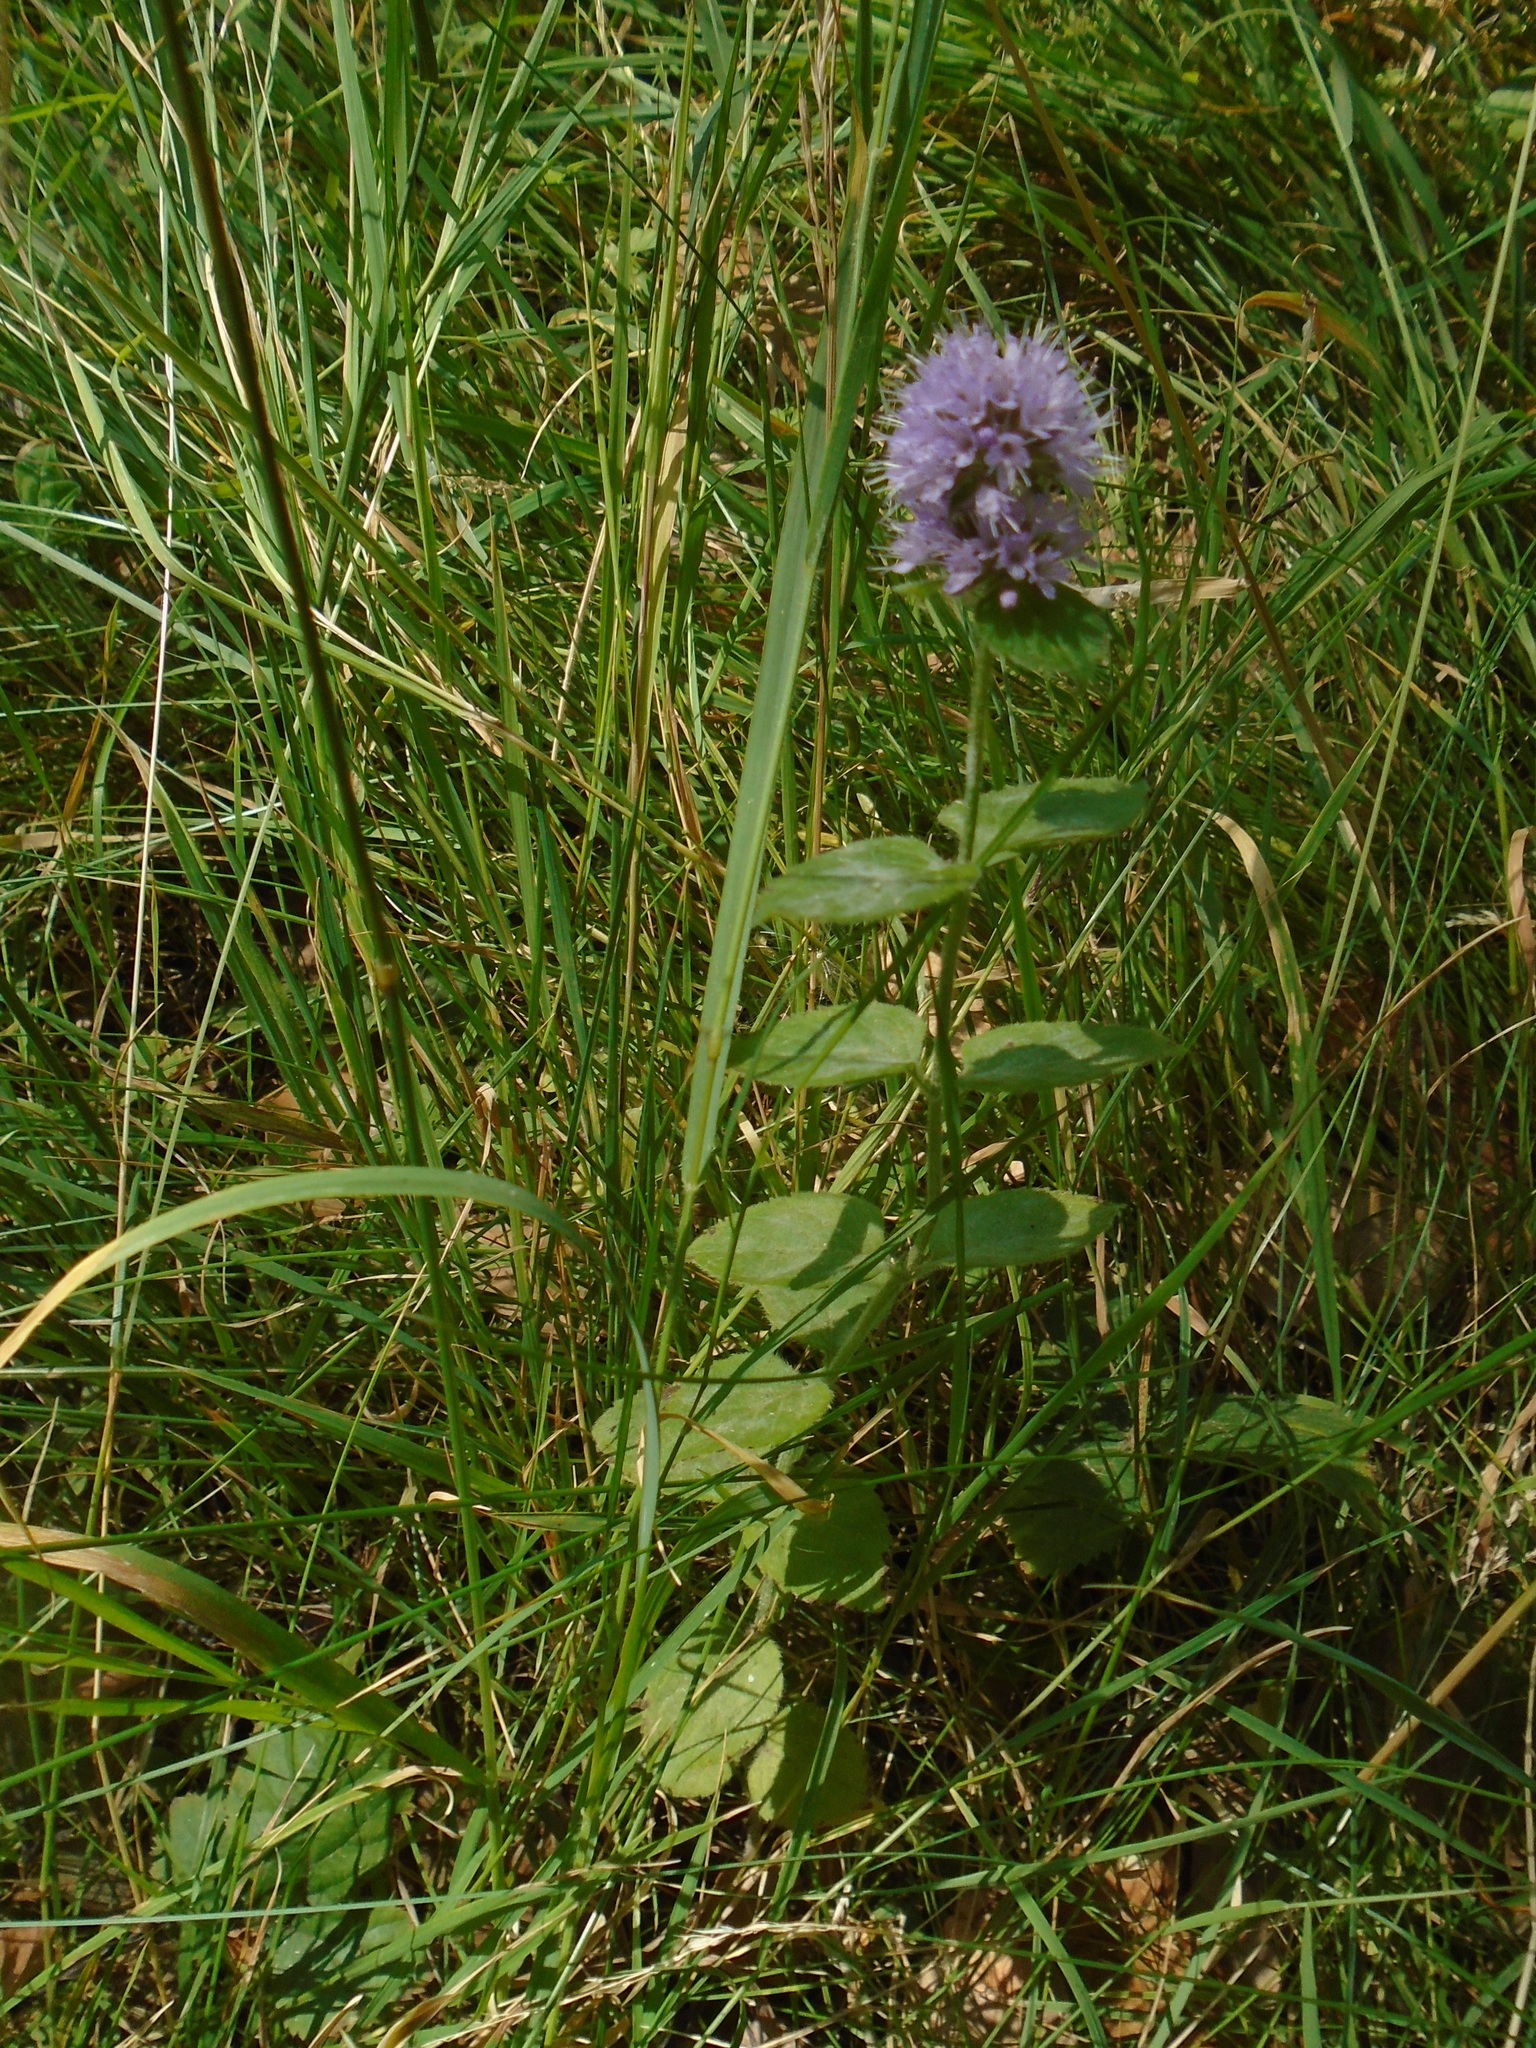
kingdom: Plantae
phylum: Tracheophyta
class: Magnoliopsida
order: Lamiales
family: Lamiaceae
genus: Mentha
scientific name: Mentha aquatica
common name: Water mint
